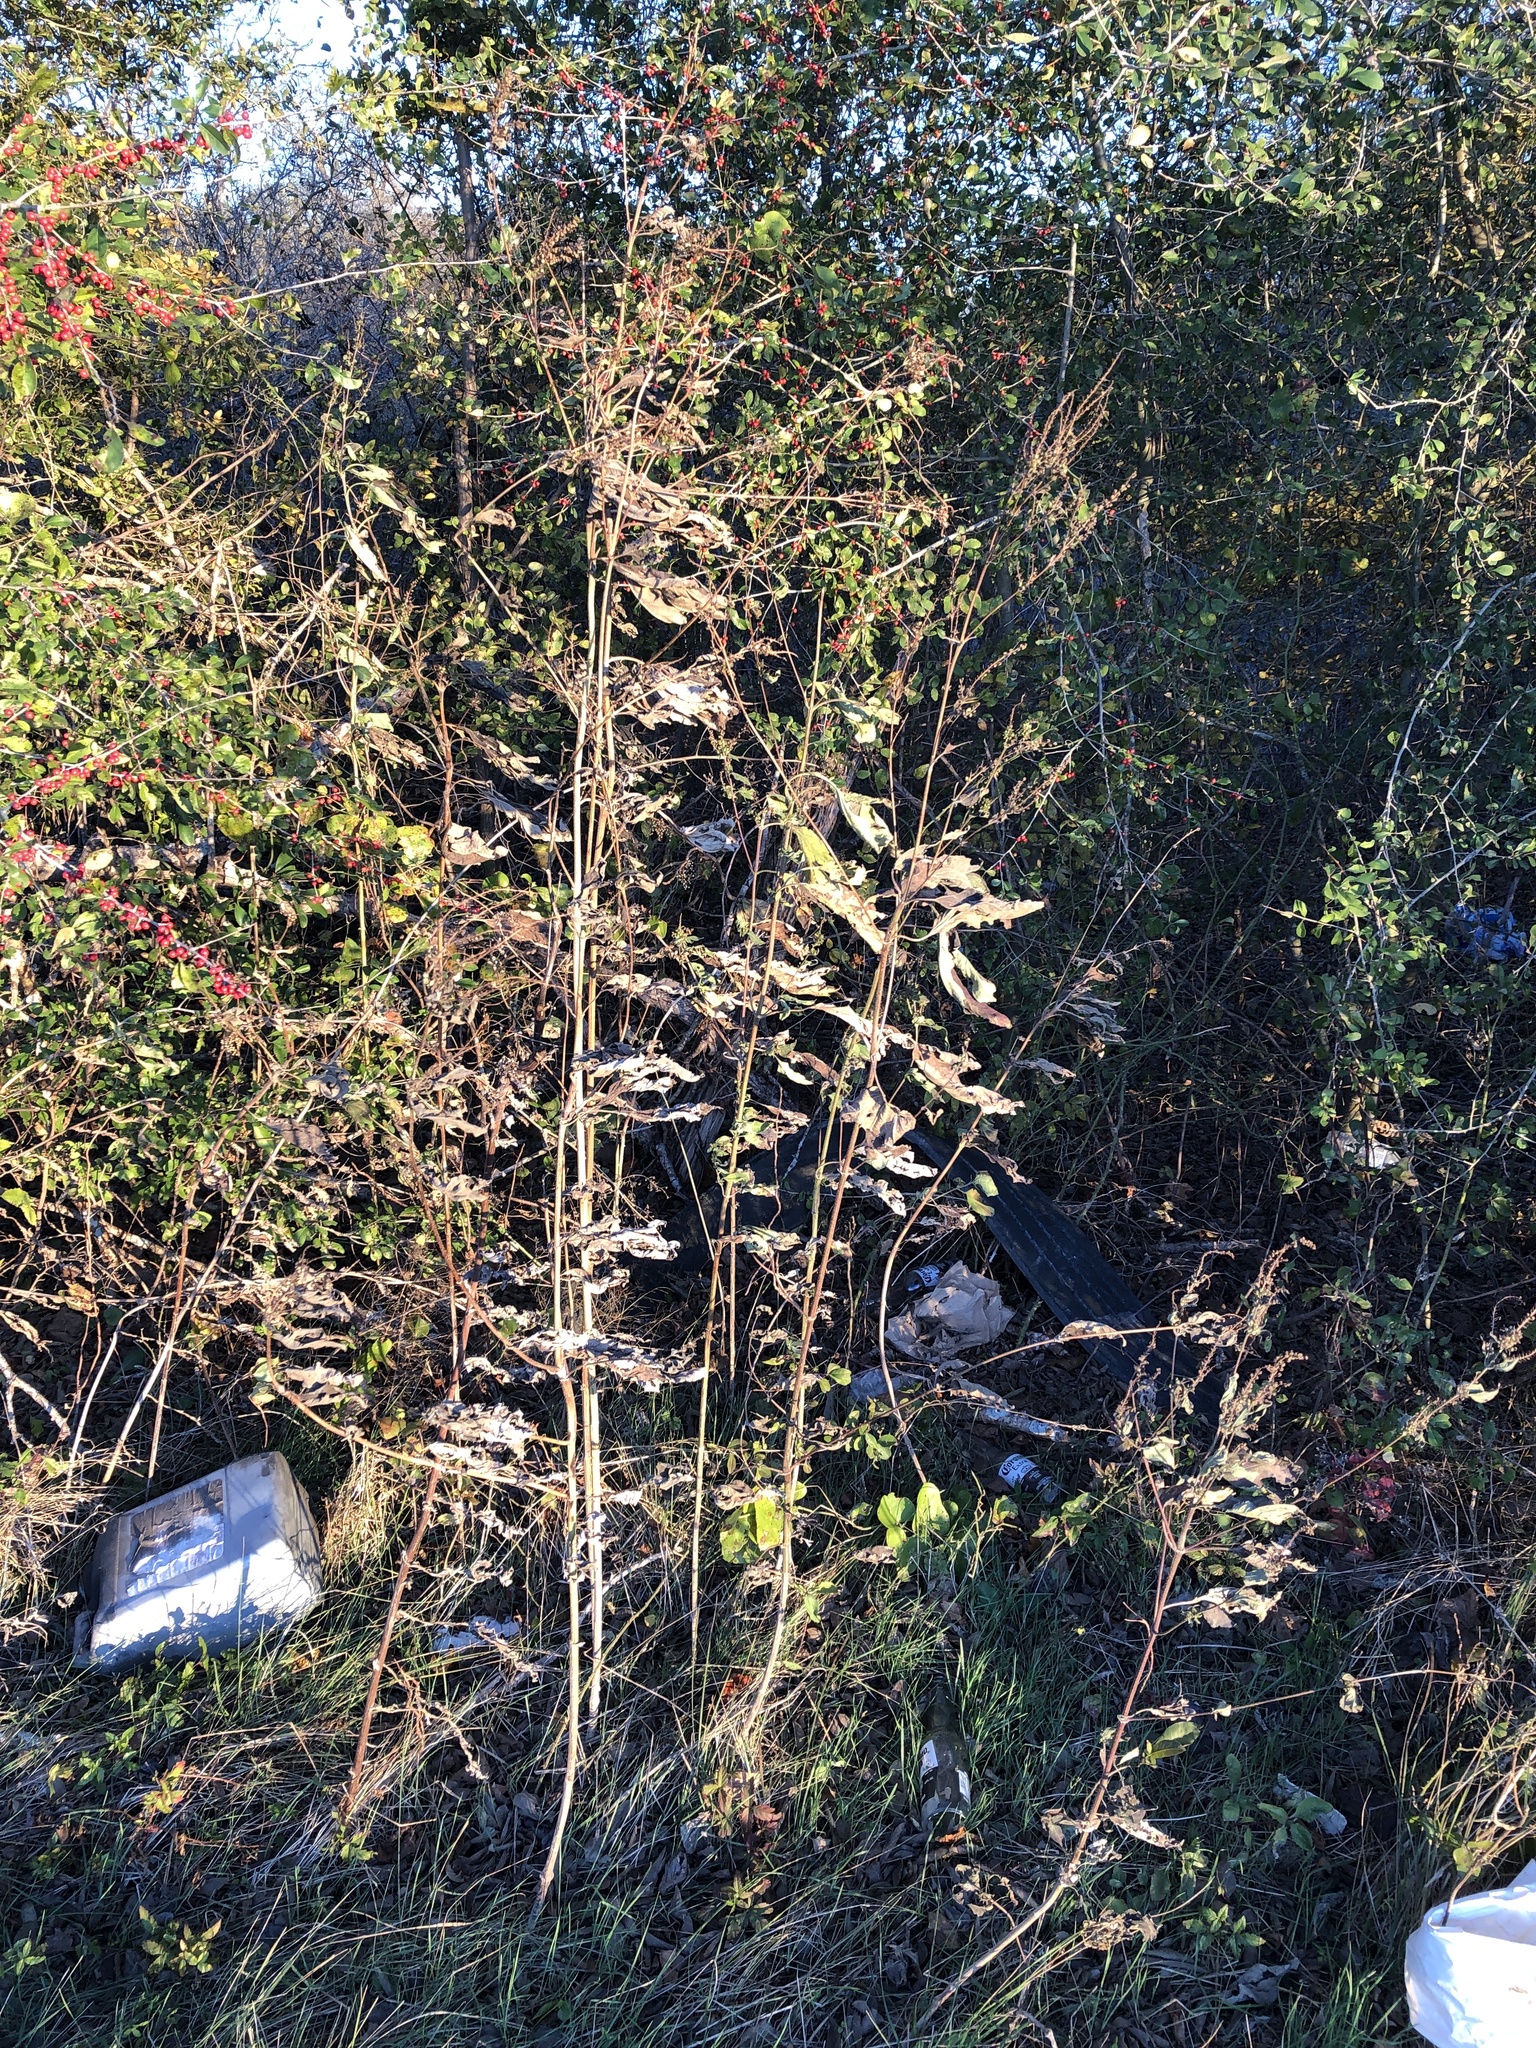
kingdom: Plantae
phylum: Tracheophyta
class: Magnoliopsida
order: Asterales
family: Asteraceae
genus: Ambrosia
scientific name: Ambrosia trifida
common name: Giant ragweed
